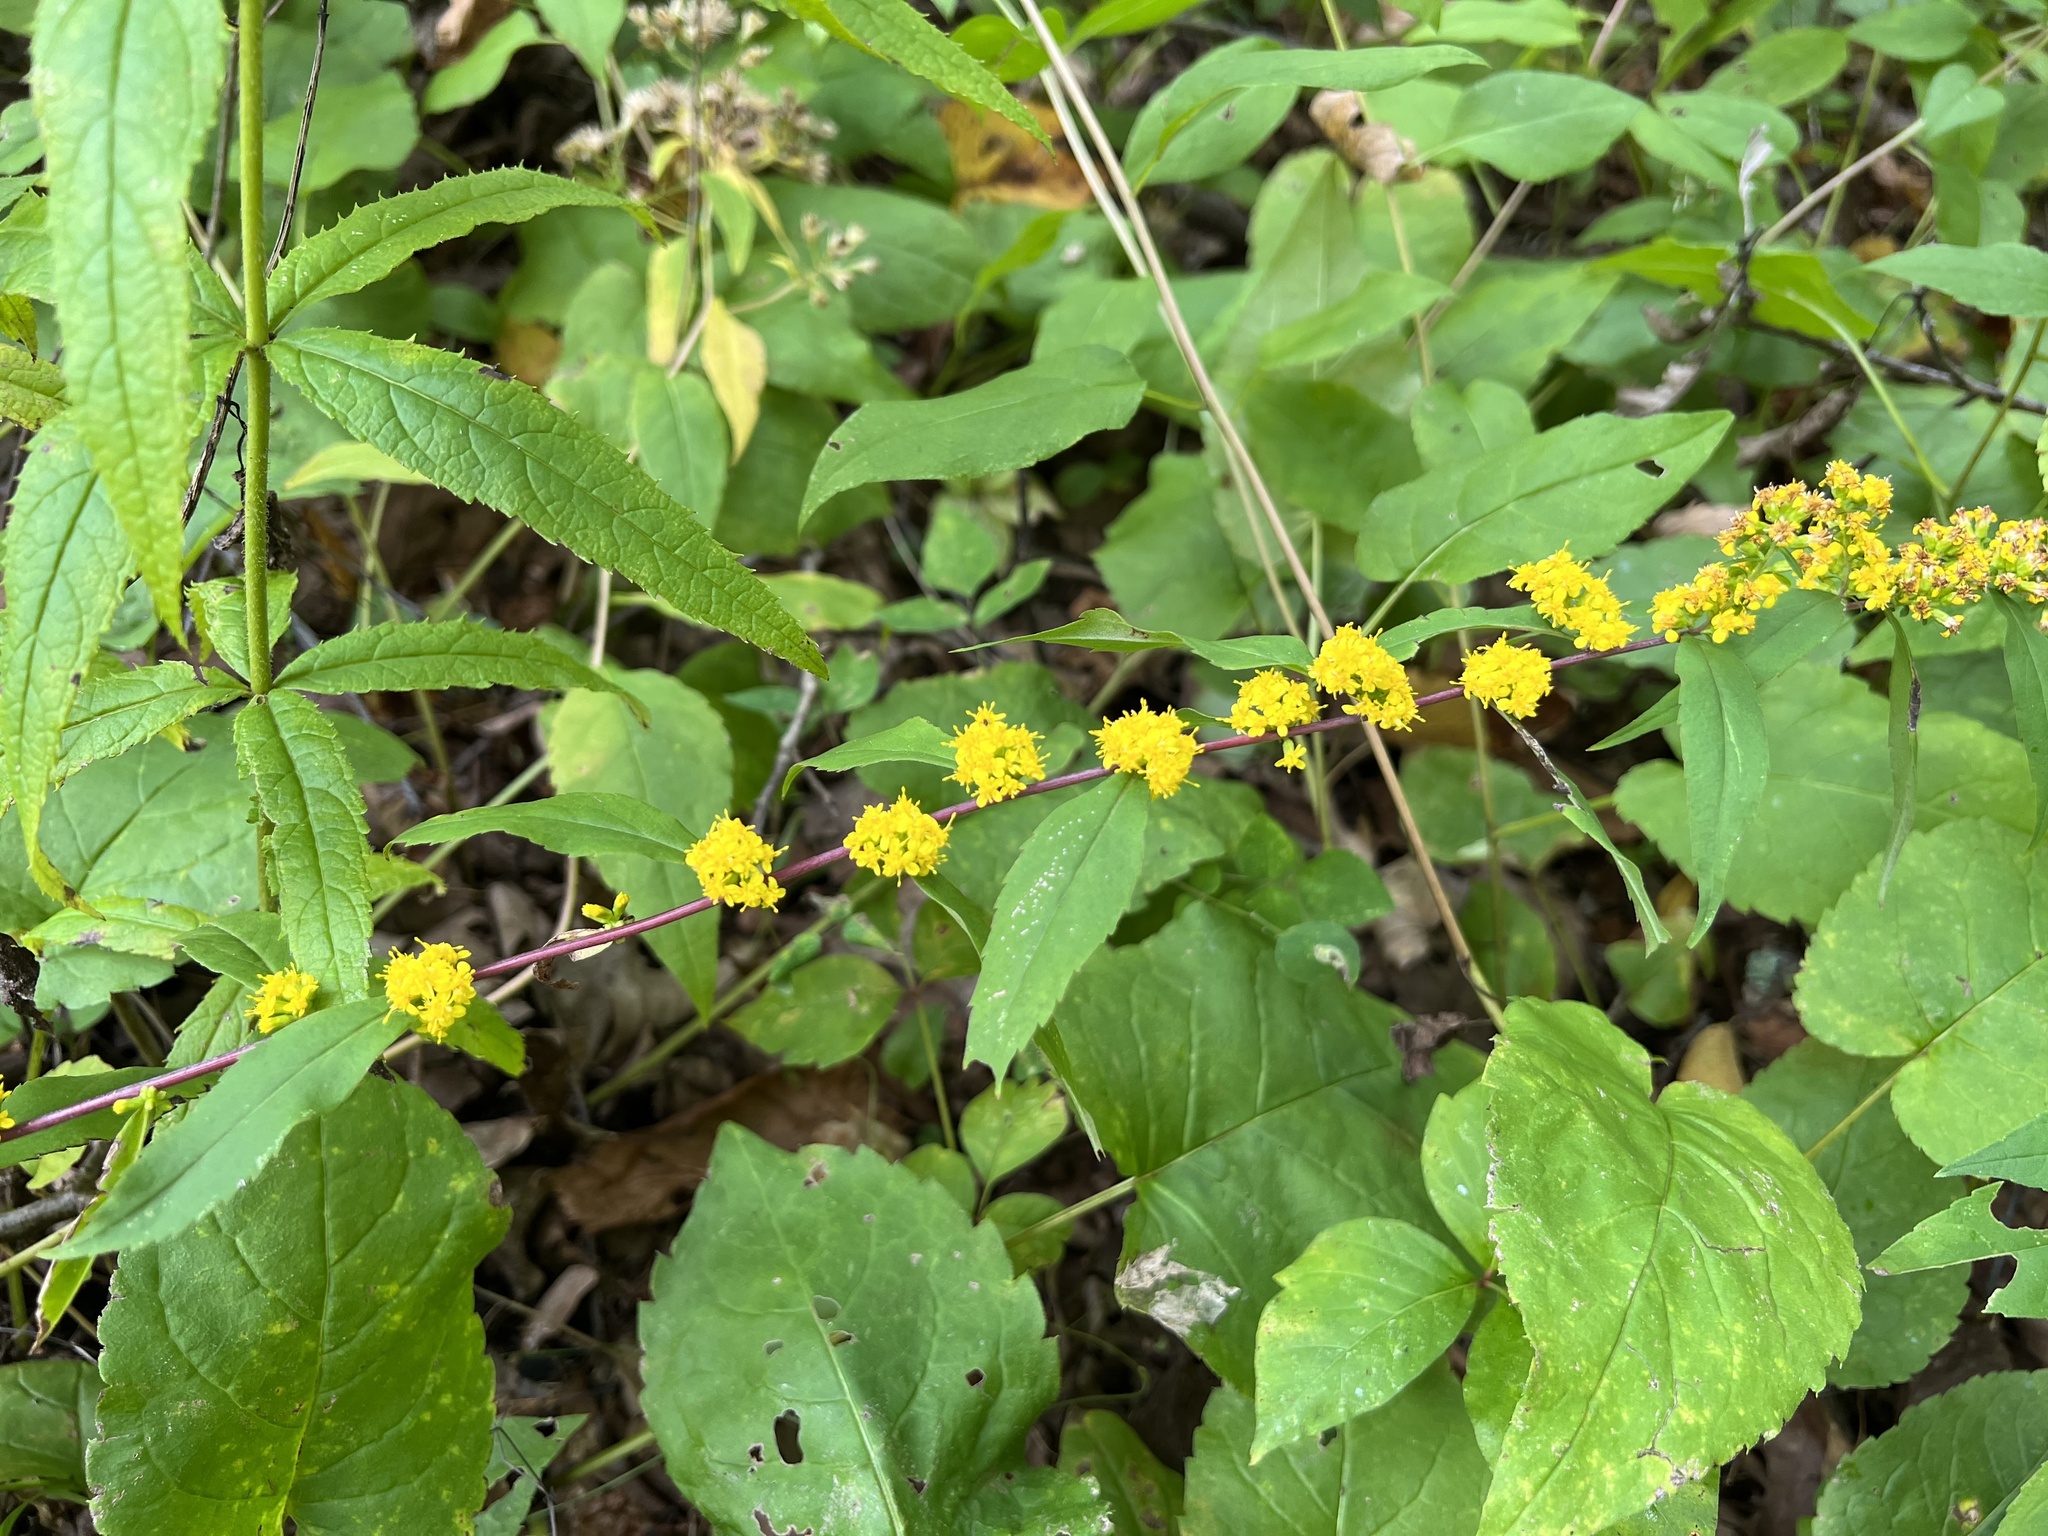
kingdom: Plantae
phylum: Tracheophyta
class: Magnoliopsida
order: Asterales
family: Asteraceae
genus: Solidago
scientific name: Solidago caesia
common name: Woodland goldenrod
